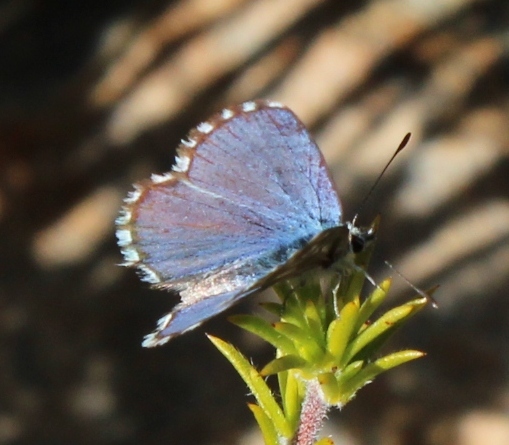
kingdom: Animalia
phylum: Arthropoda
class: Insecta
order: Lepidoptera
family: Lycaenidae
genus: Tarucus
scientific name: Tarucus thespis
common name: Vivid dotted blue
